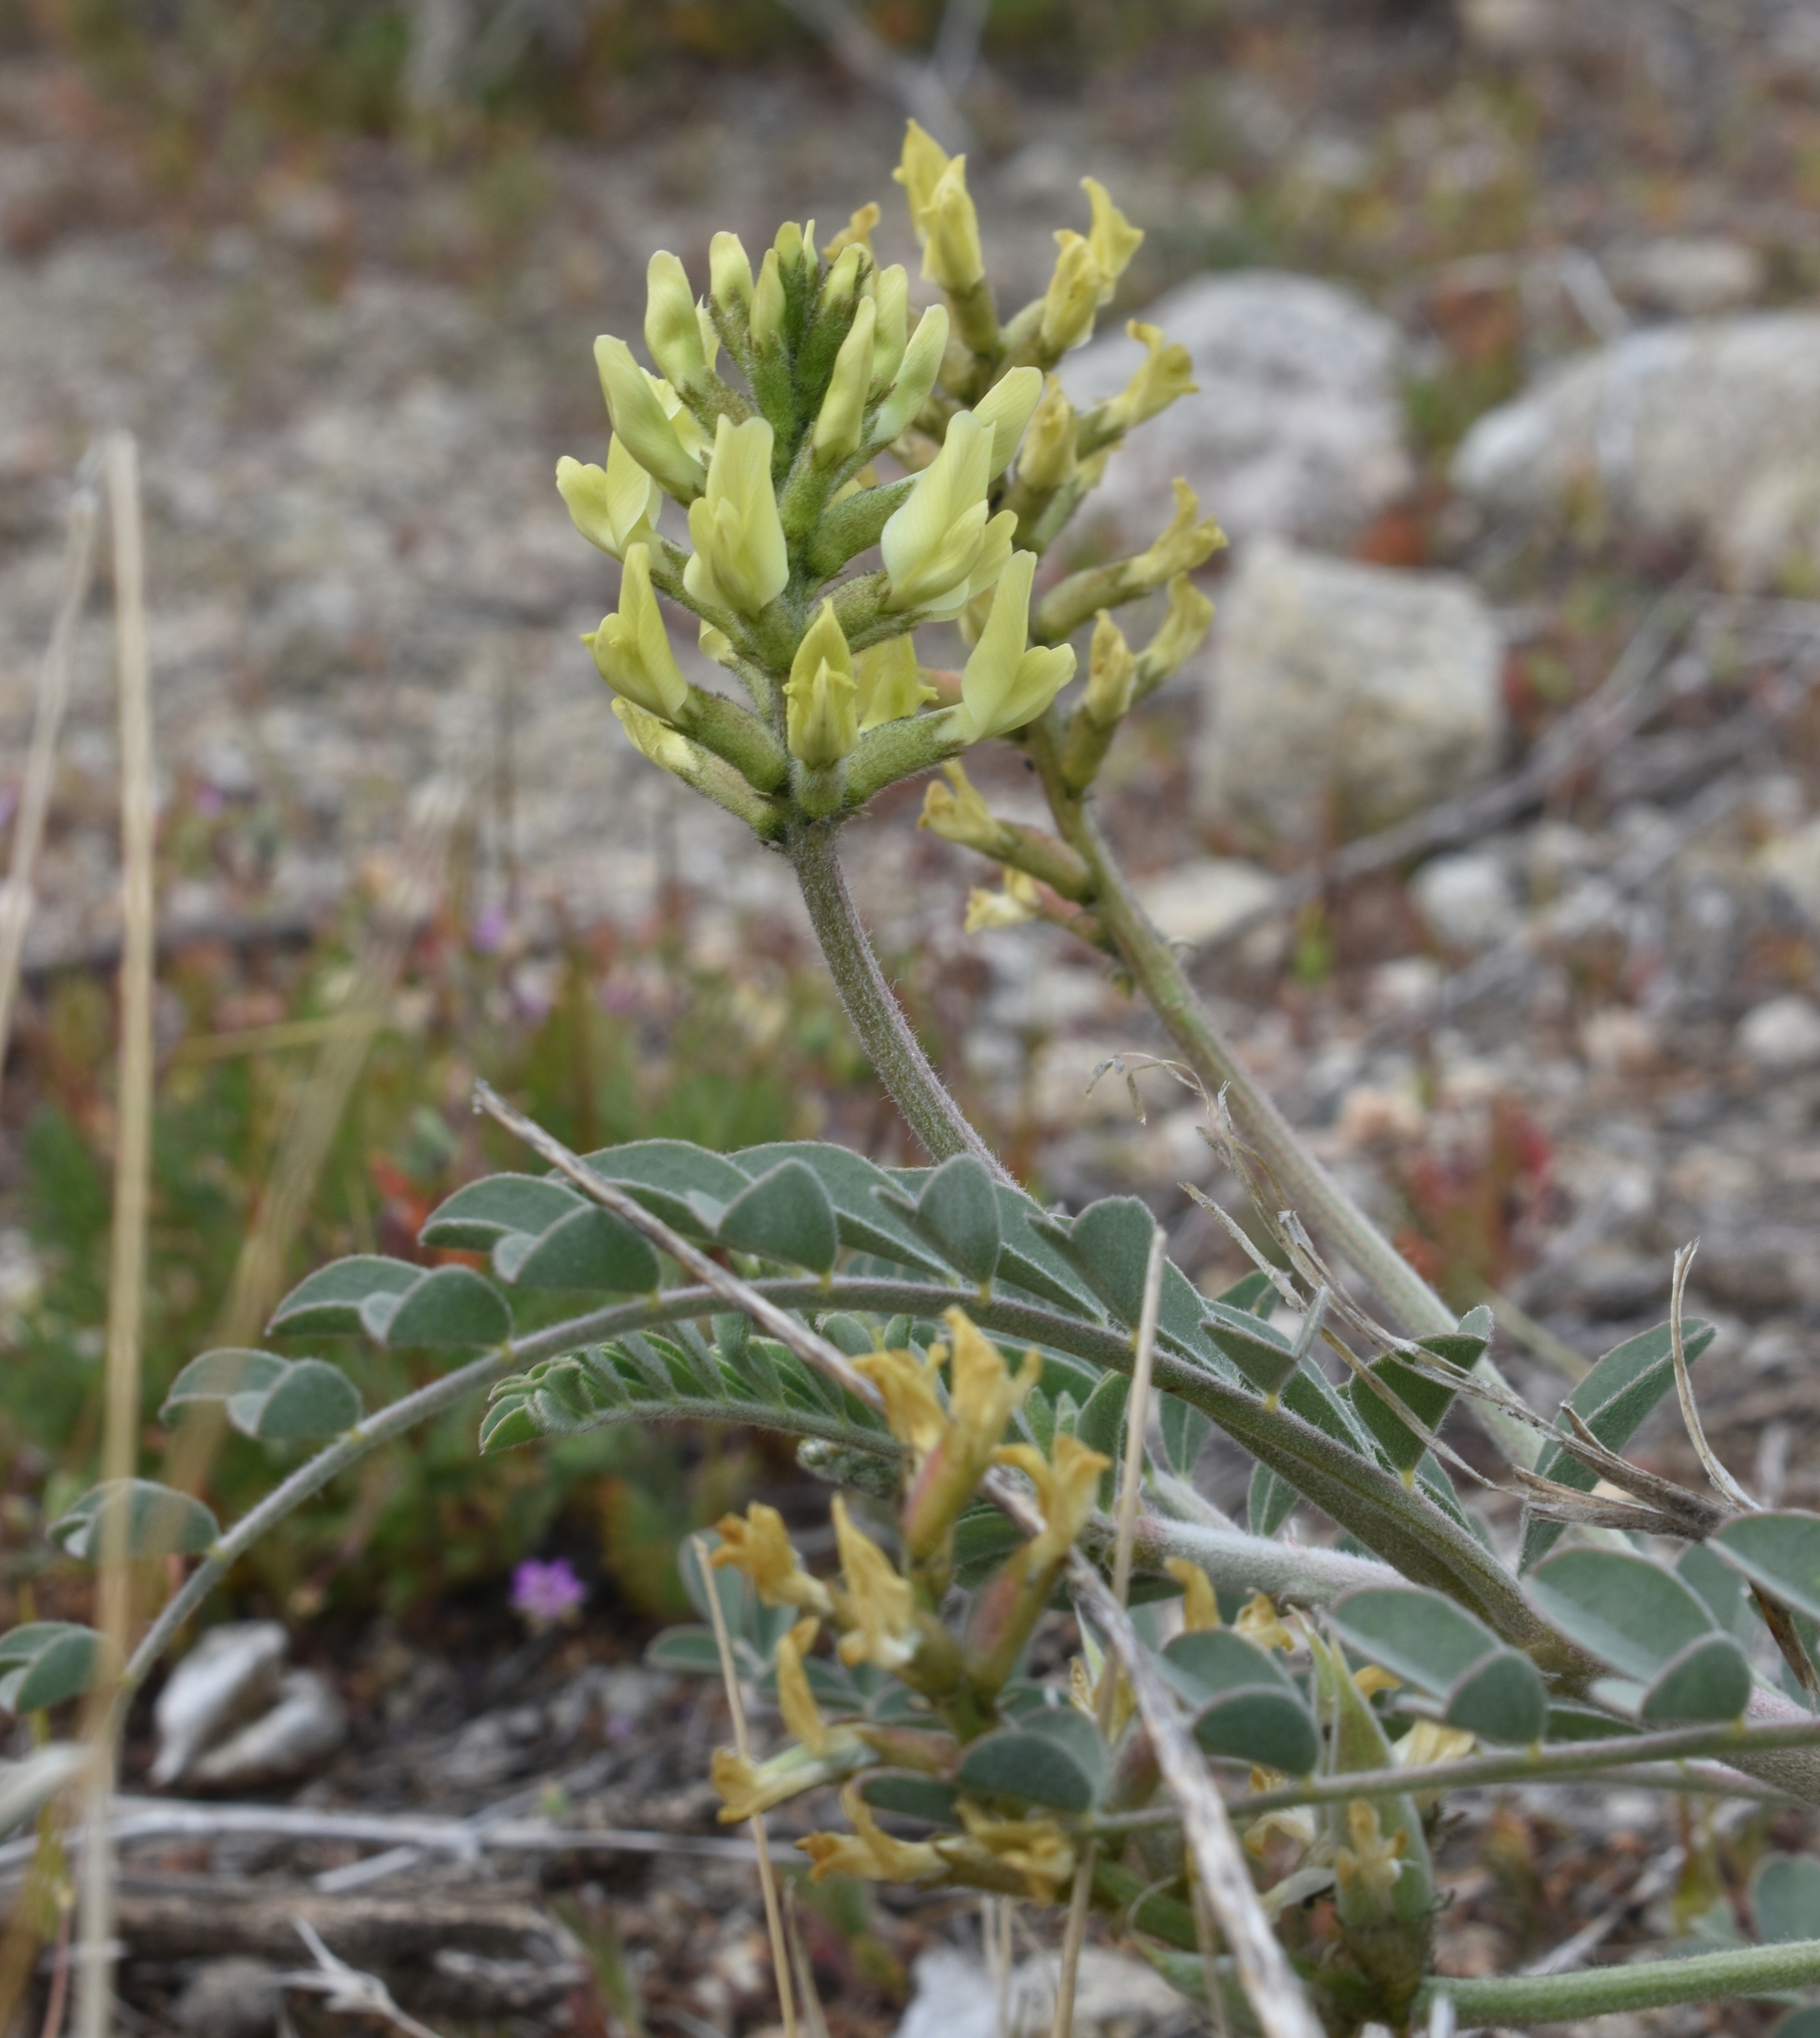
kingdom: Plantae
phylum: Tracheophyta
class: Magnoliopsida
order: Fabales
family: Fabaceae
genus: Astragalus
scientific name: Astragalus lentiginosus
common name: Freckled milkvetch
